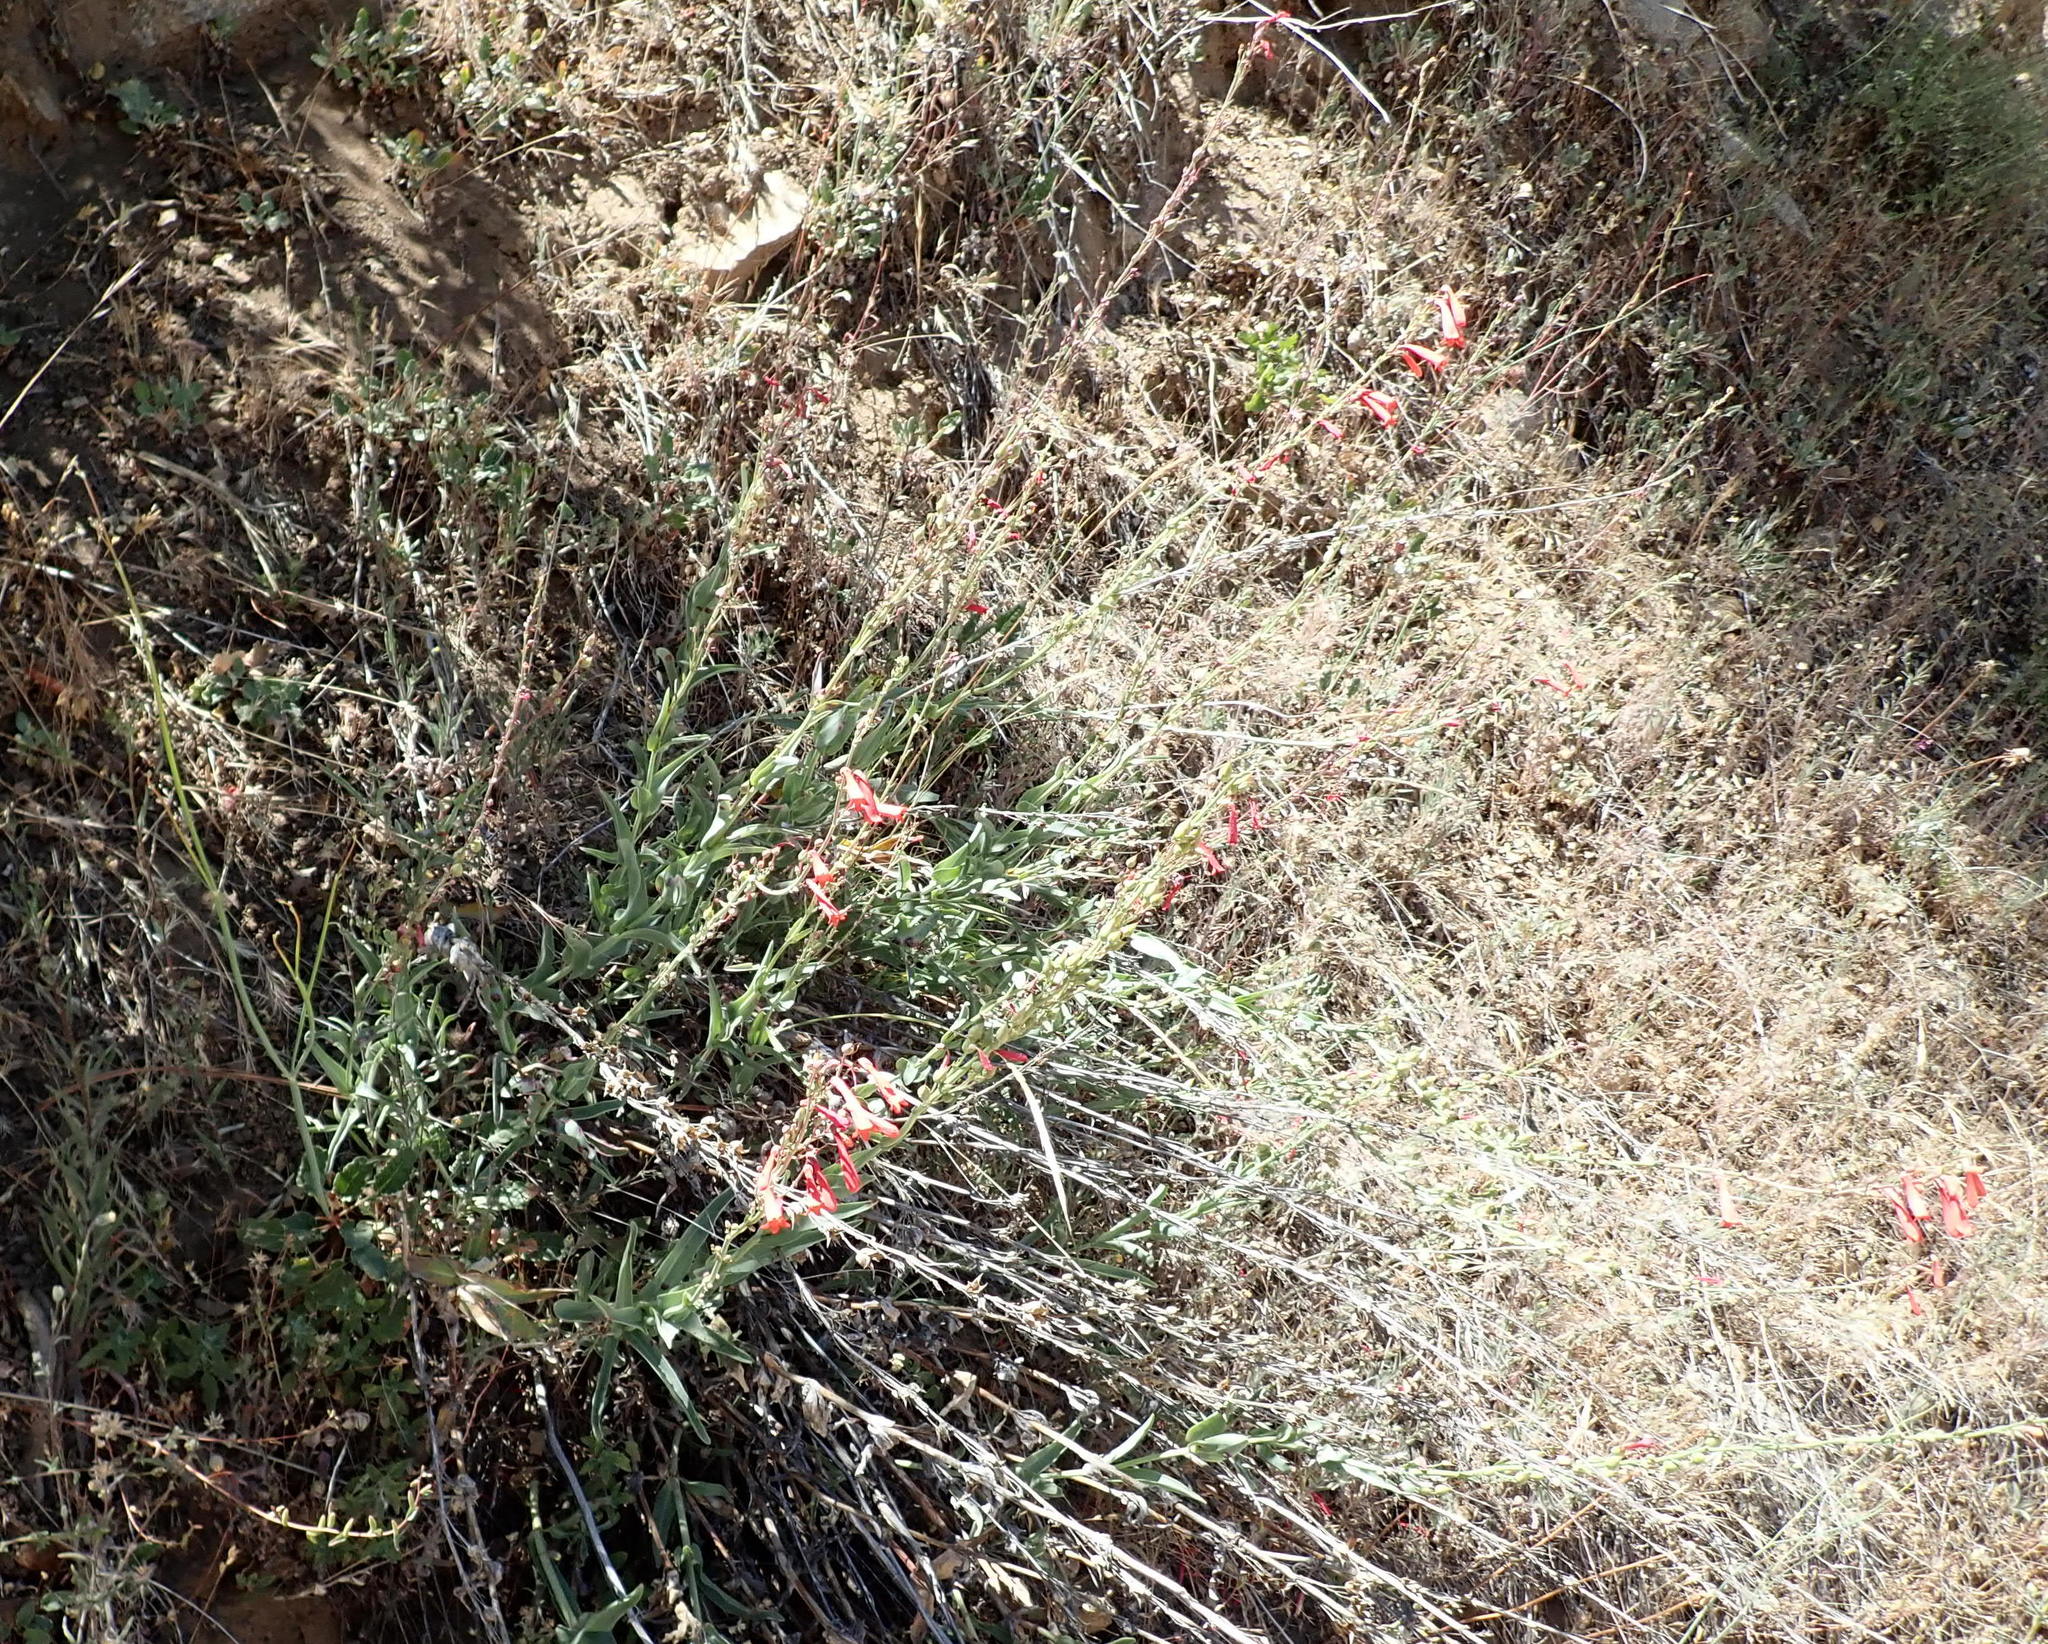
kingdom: Plantae
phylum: Tracheophyta
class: Magnoliopsida
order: Lamiales
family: Plantaginaceae
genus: Penstemon
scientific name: Penstemon centranthifolius
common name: Scarlet bugler
